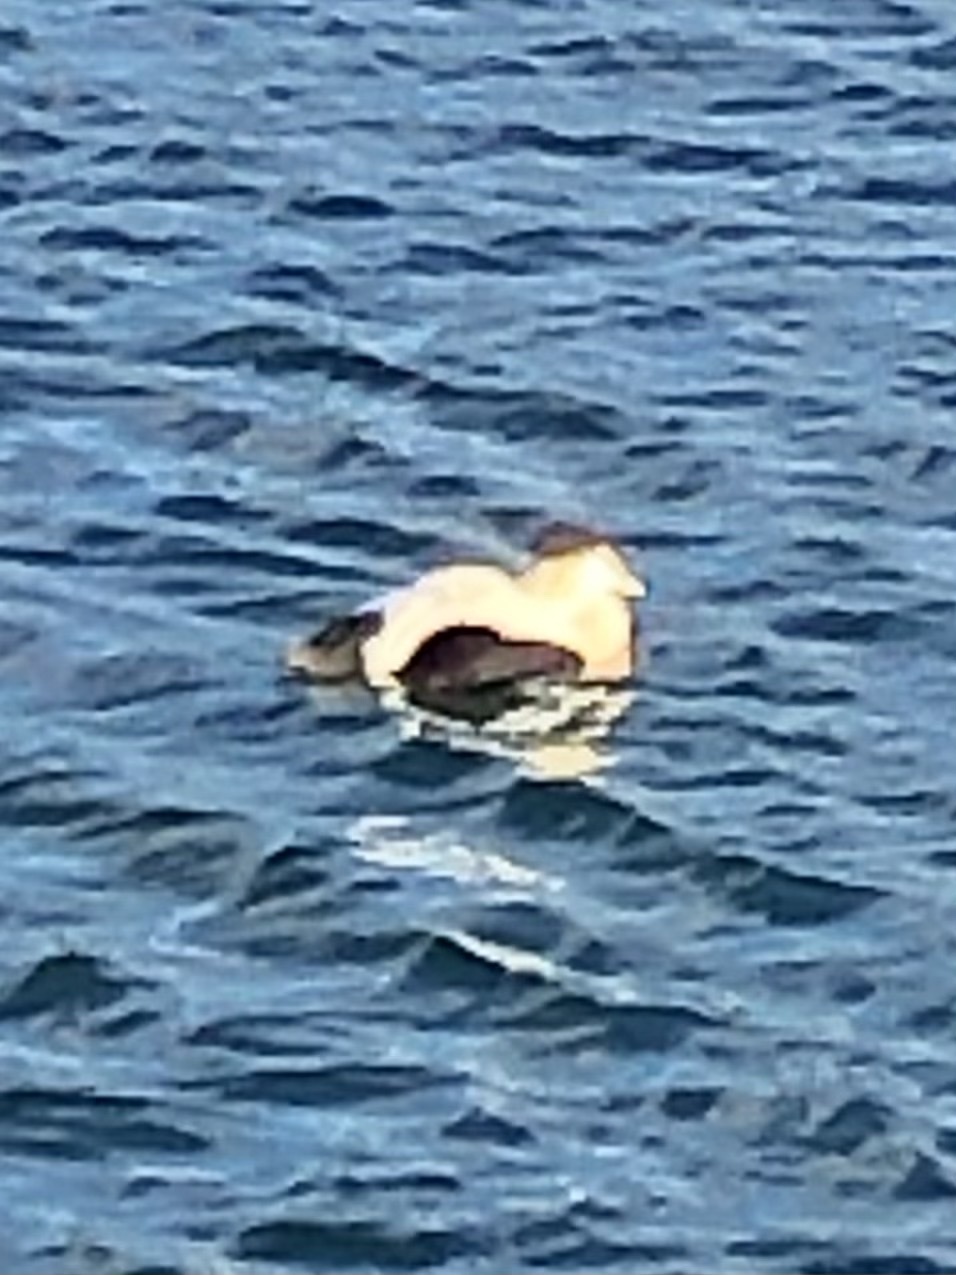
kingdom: Animalia
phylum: Chordata
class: Aves
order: Anseriformes
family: Anatidae
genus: Somateria
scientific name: Somateria mollissima
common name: Common eider
